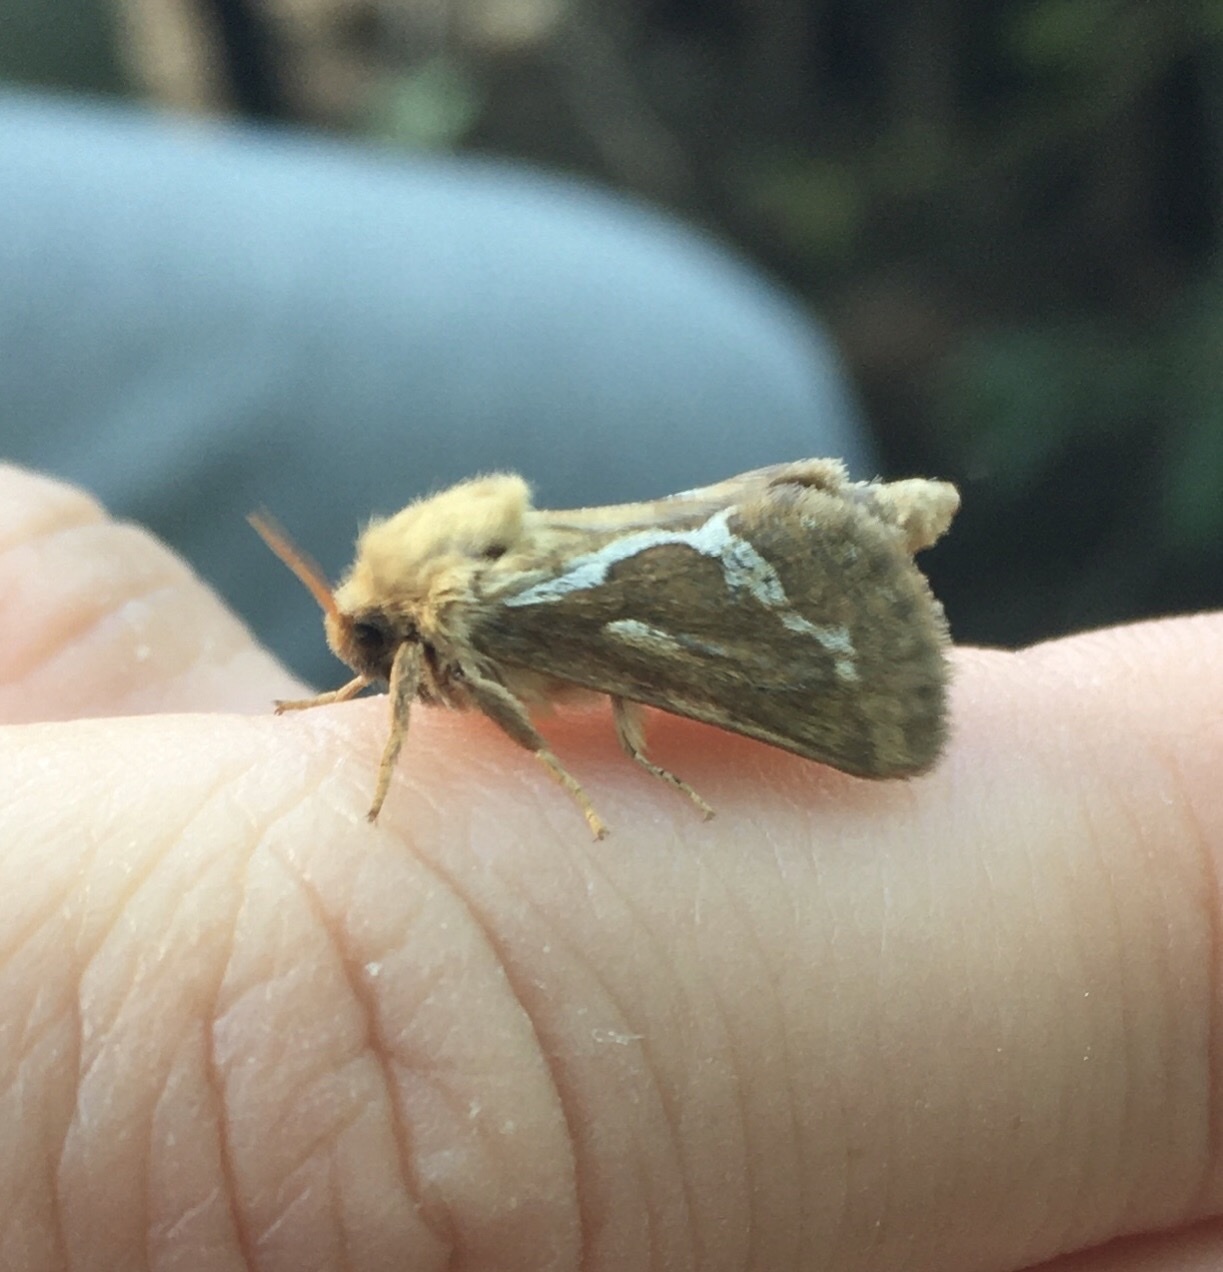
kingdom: Animalia
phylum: Arthropoda
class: Insecta
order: Lepidoptera
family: Hepialidae
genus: Korscheltellus
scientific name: Korscheltellus lupulina
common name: Common swift
